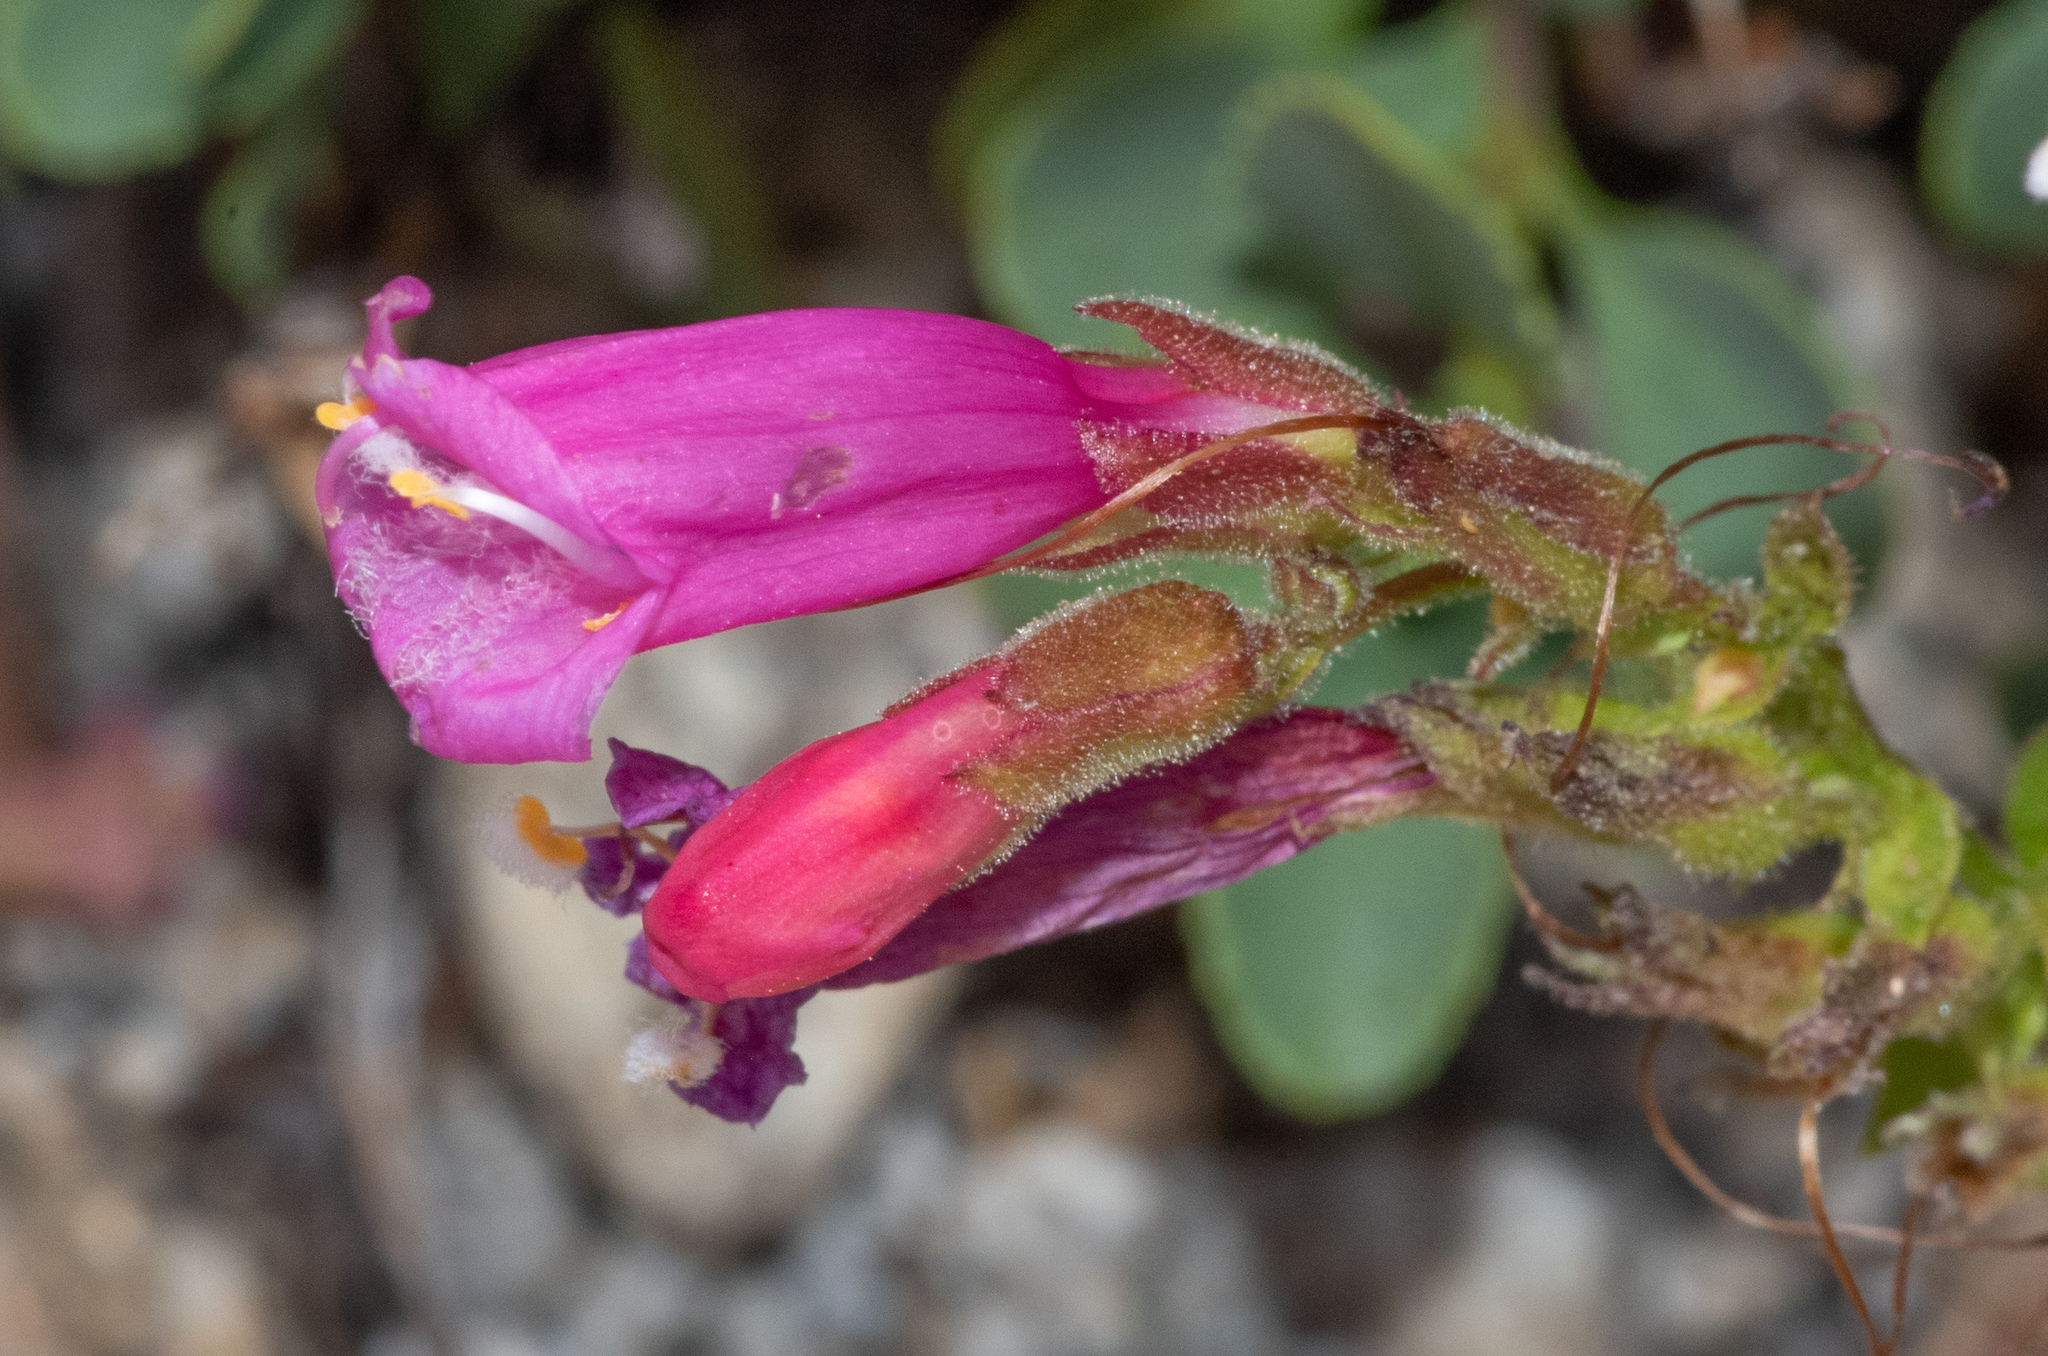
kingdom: Plantae
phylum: Tracheophyta
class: Magnoliopsida
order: Lamiales
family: Plantaginaceae
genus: Penstemon
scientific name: Penstemon newberryi
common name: Mountain-pride
